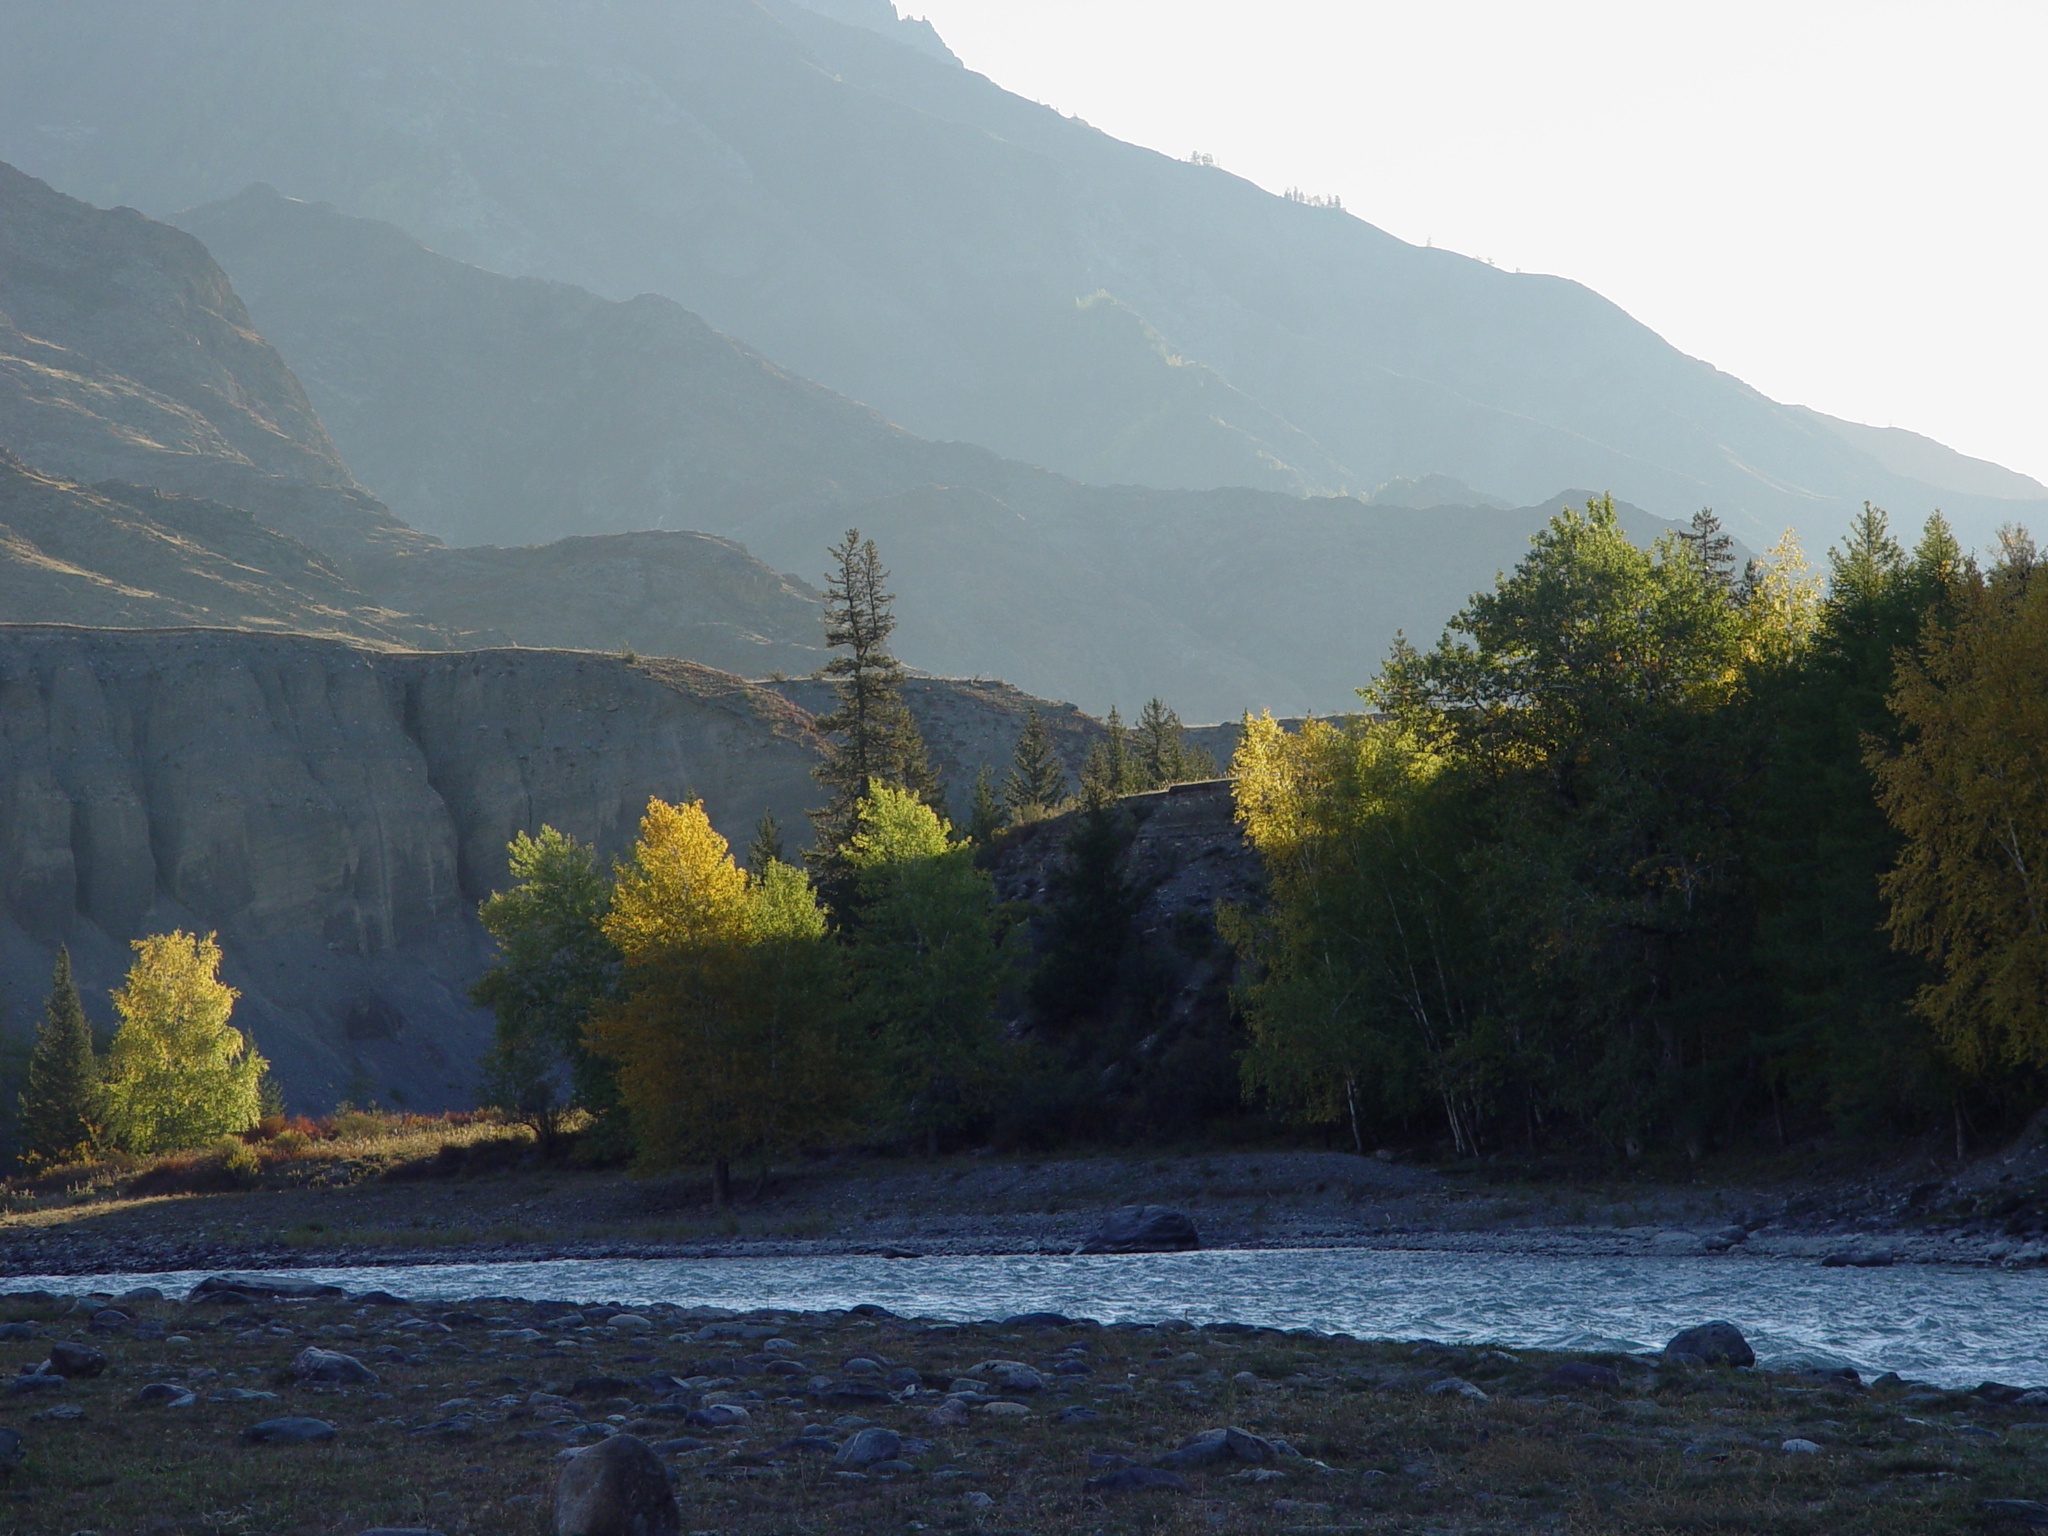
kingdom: Plantae
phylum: Tracheophyta
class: Magnoliopsida
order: Malpighiales
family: Salicaceae
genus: Populus
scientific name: Populus laurifolia
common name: Laurel-leaf poplar
